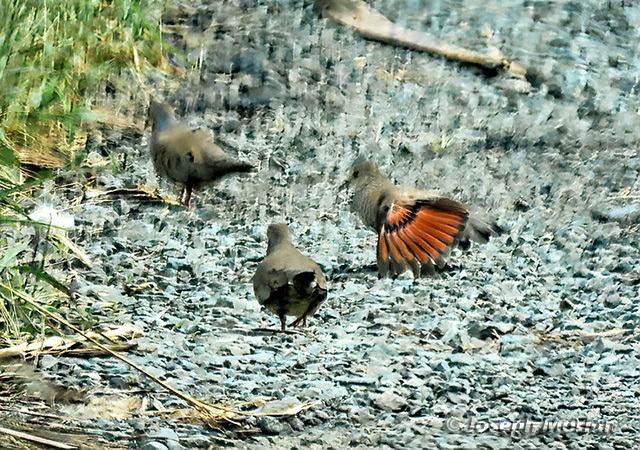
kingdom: Animalia
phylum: Chordata
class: Aves
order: Columbiformes
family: Columbidae
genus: Columbina
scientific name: Columbina passerina
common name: Common ground-dove
